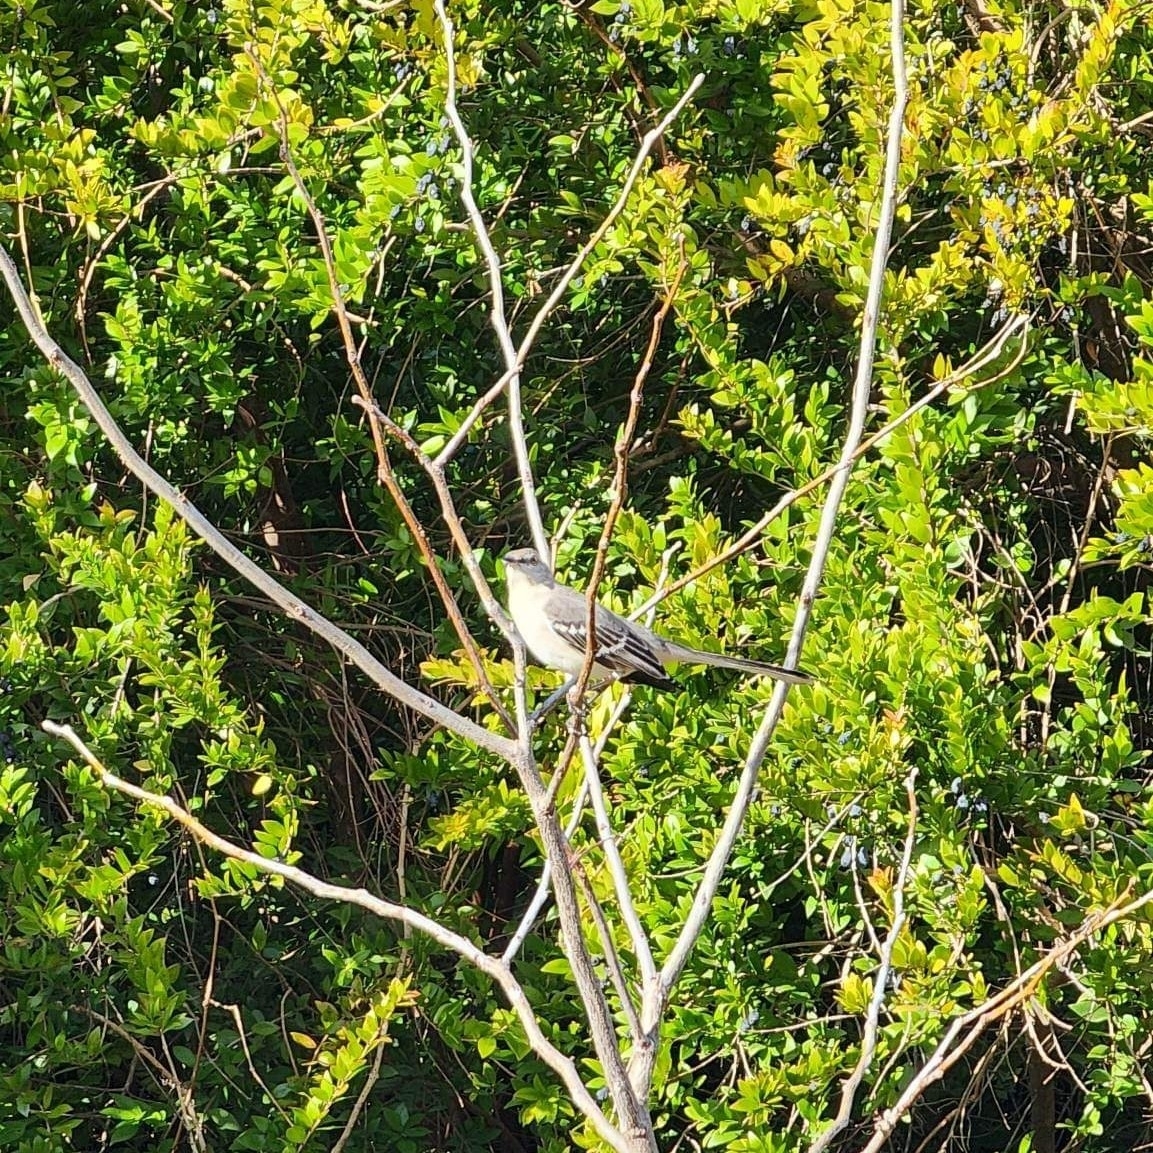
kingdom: Animalia
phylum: Chordata
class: Aves
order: Passeriformes
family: Mimidae
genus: Mimus
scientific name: Mimus polyglottos
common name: Northern mockingbird
